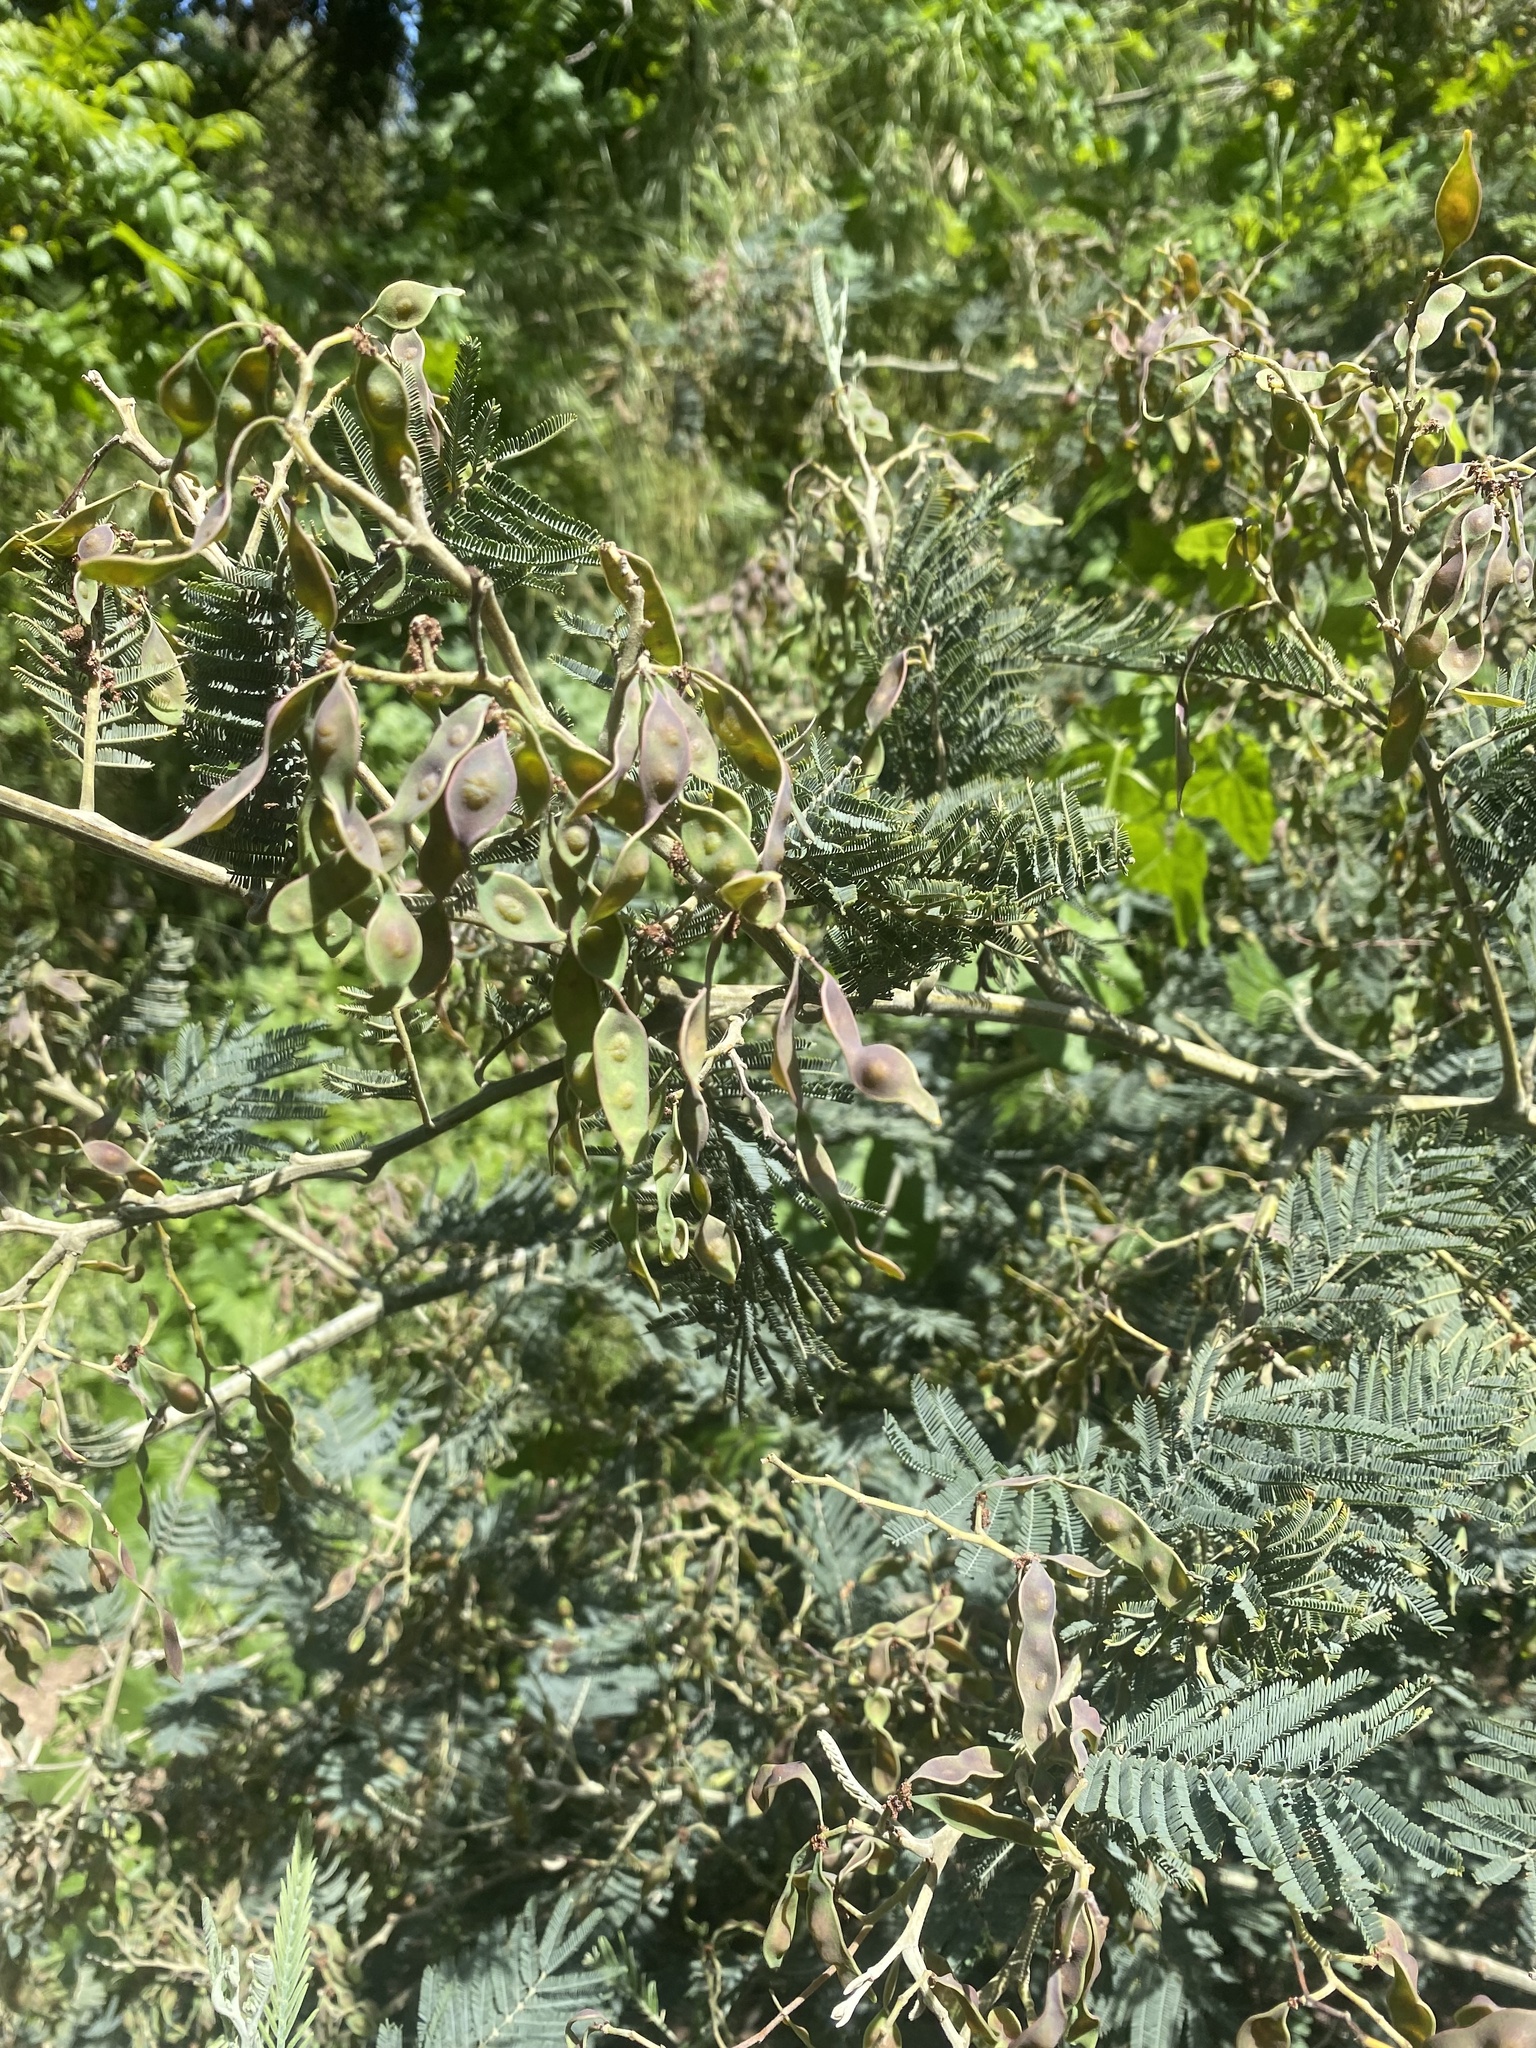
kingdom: Plantae
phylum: Tracheophyta
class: Magnoliopsida
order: Fabales
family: Fabaceae
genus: Acacia
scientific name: Acacia dealbata
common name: Silver wattle
